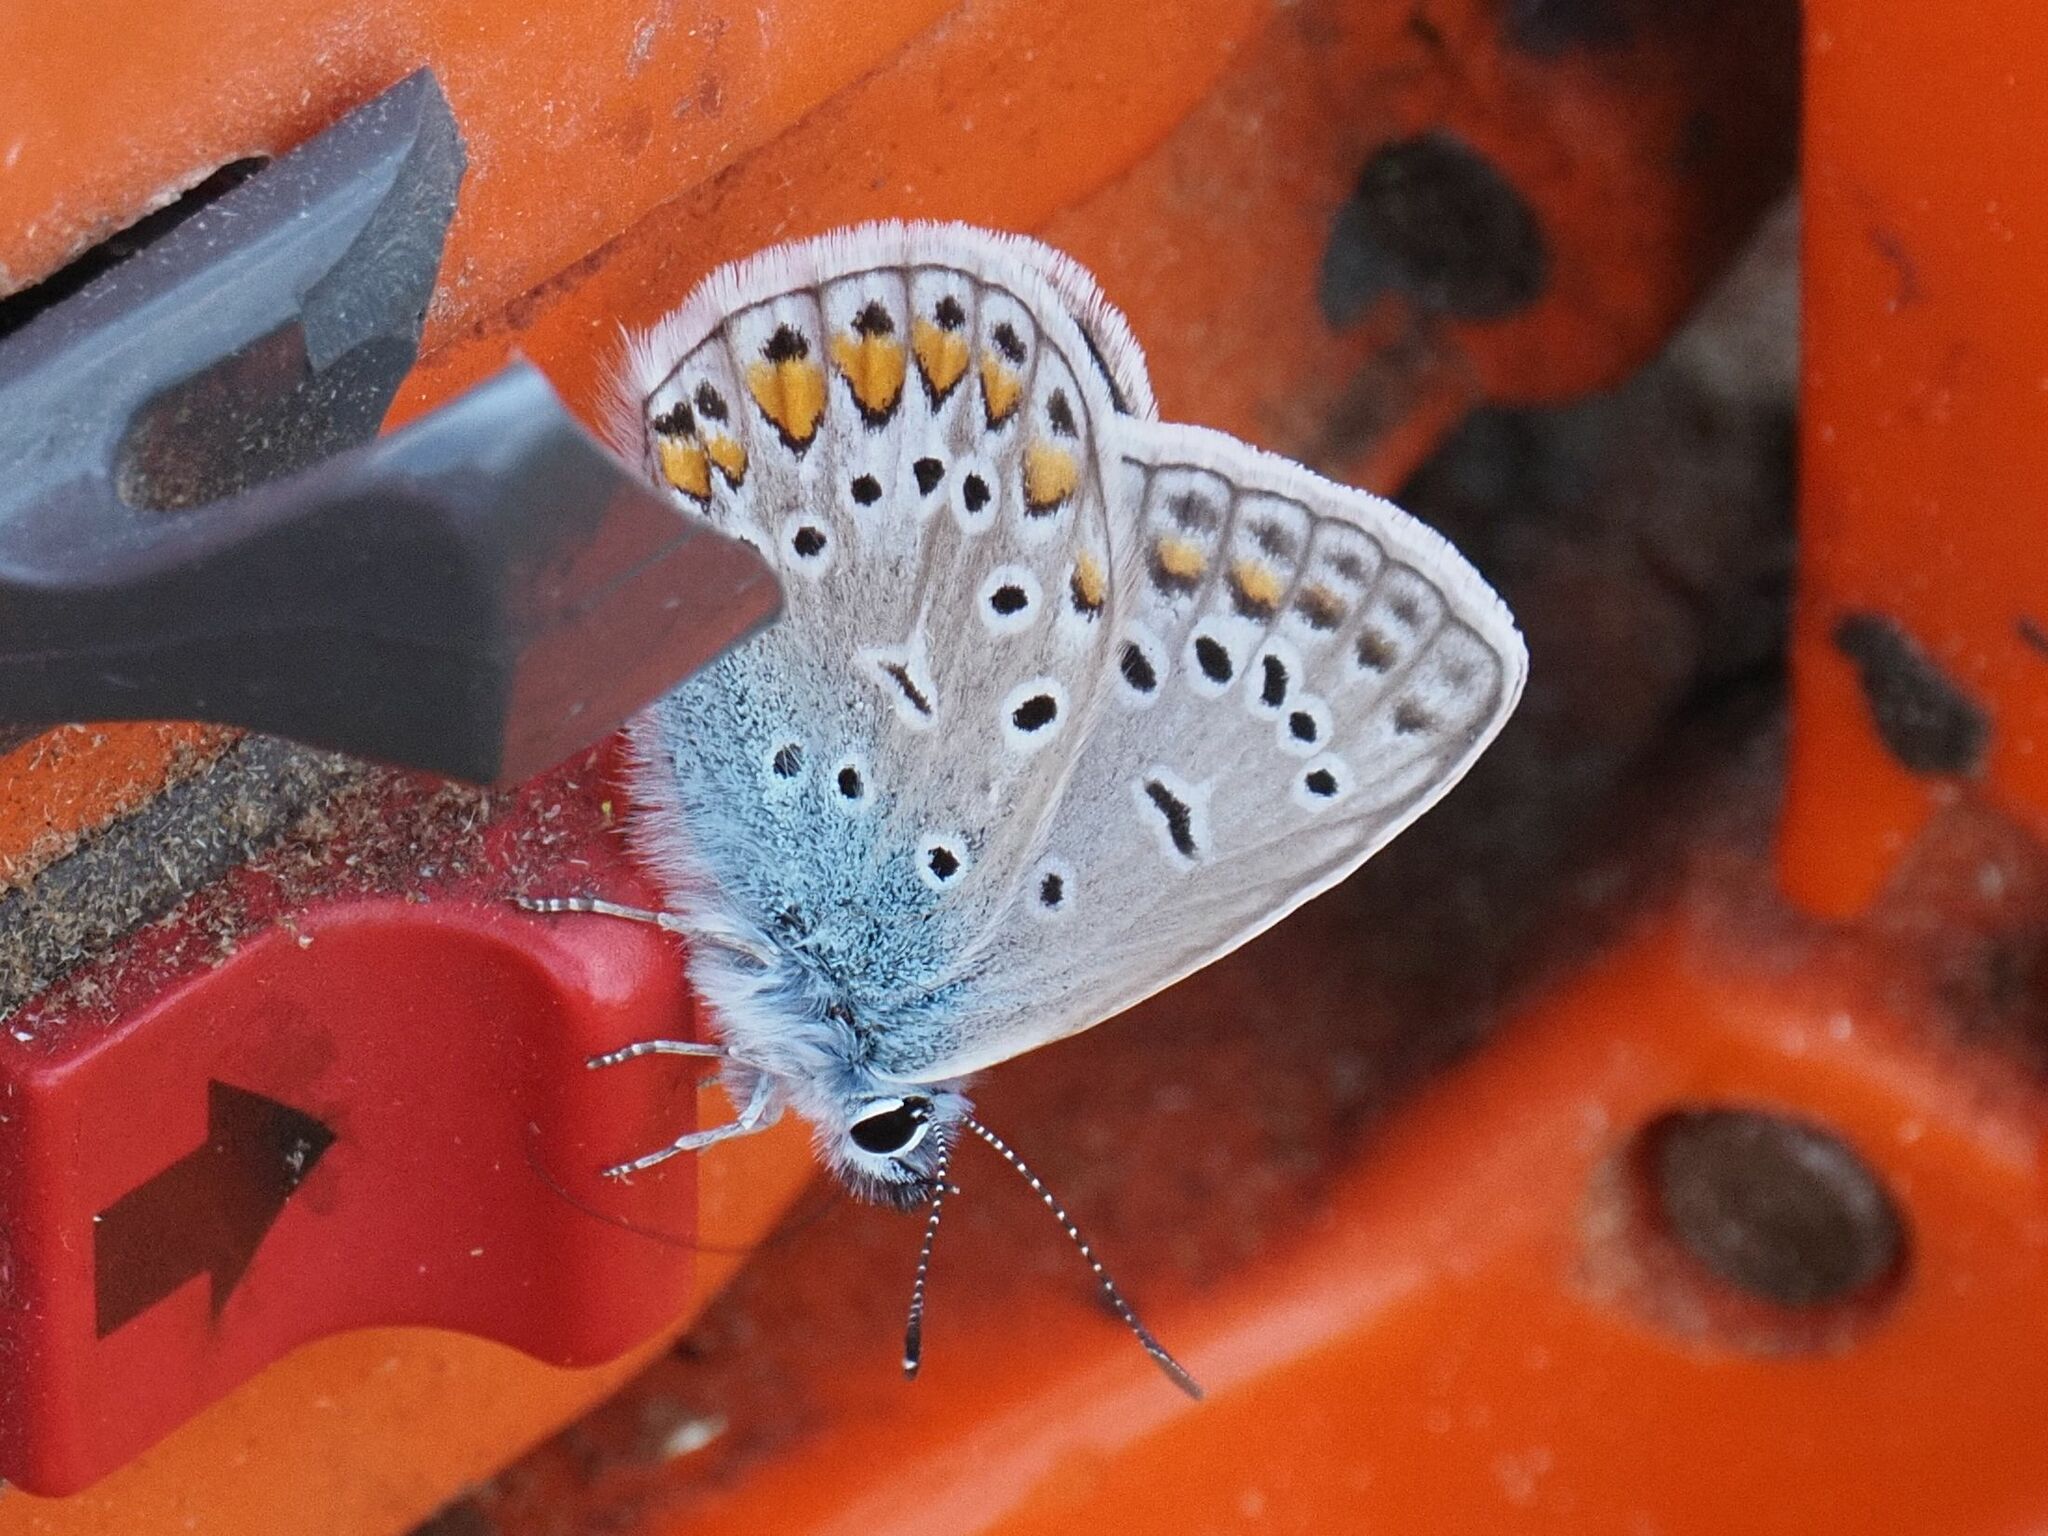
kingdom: Animalia
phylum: Arthropoda
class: Insecta
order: Lepidoptera
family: Lycaenidae
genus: Polyommatus
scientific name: Polyommatus icarus
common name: Common blue
